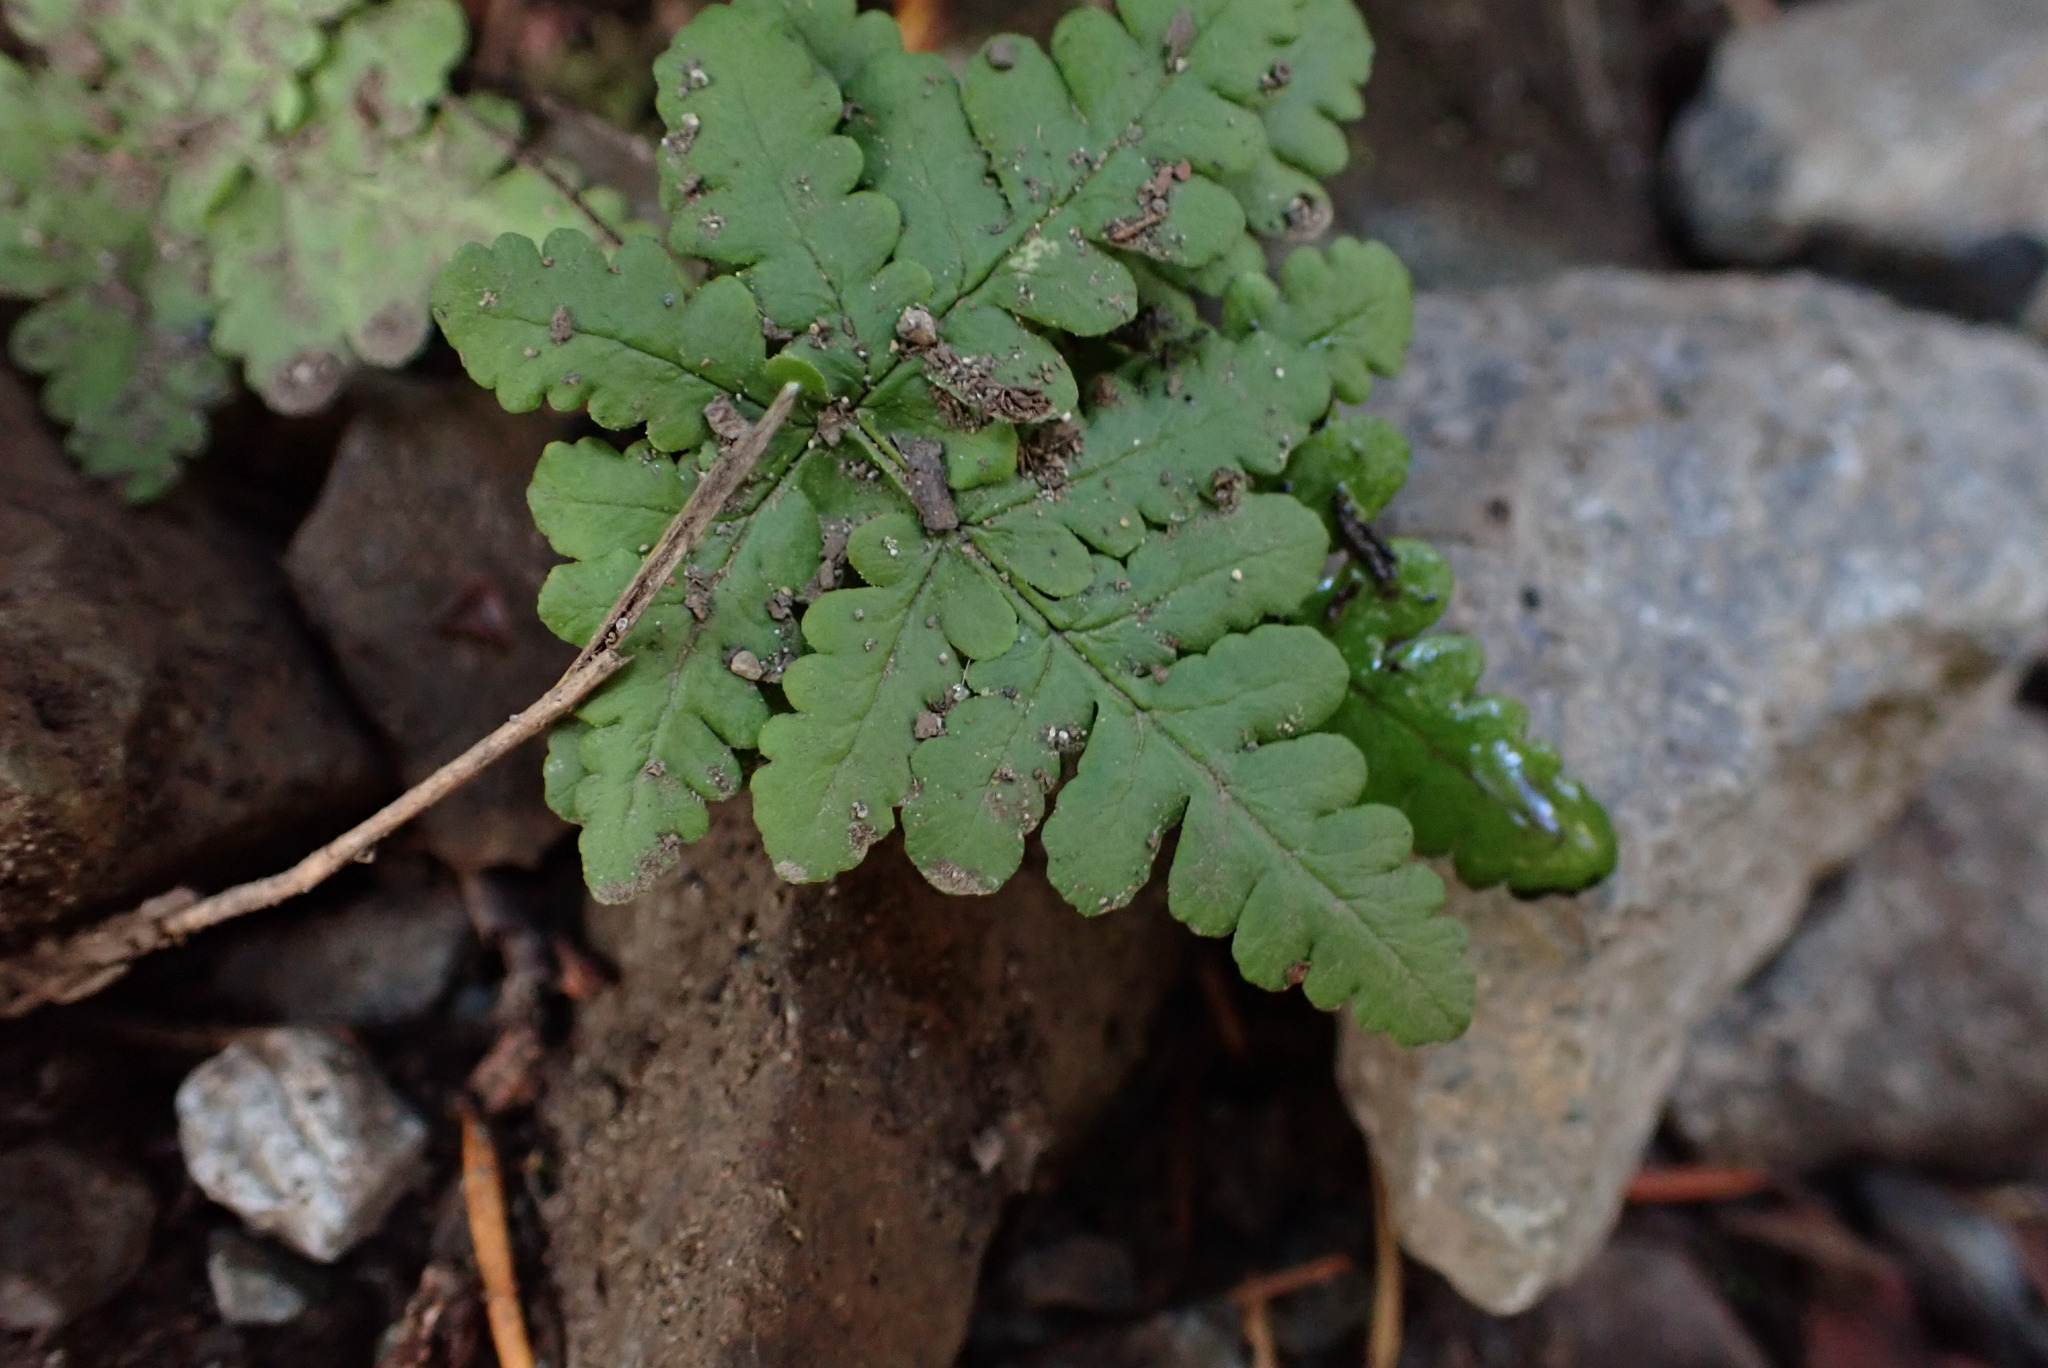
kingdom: Plantae
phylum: Tracheophyta
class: Polypodiopsida
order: Polypodiales
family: Pteridaceae
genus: Pentagramma
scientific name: Pentagramma triangularis
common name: Gold fern
